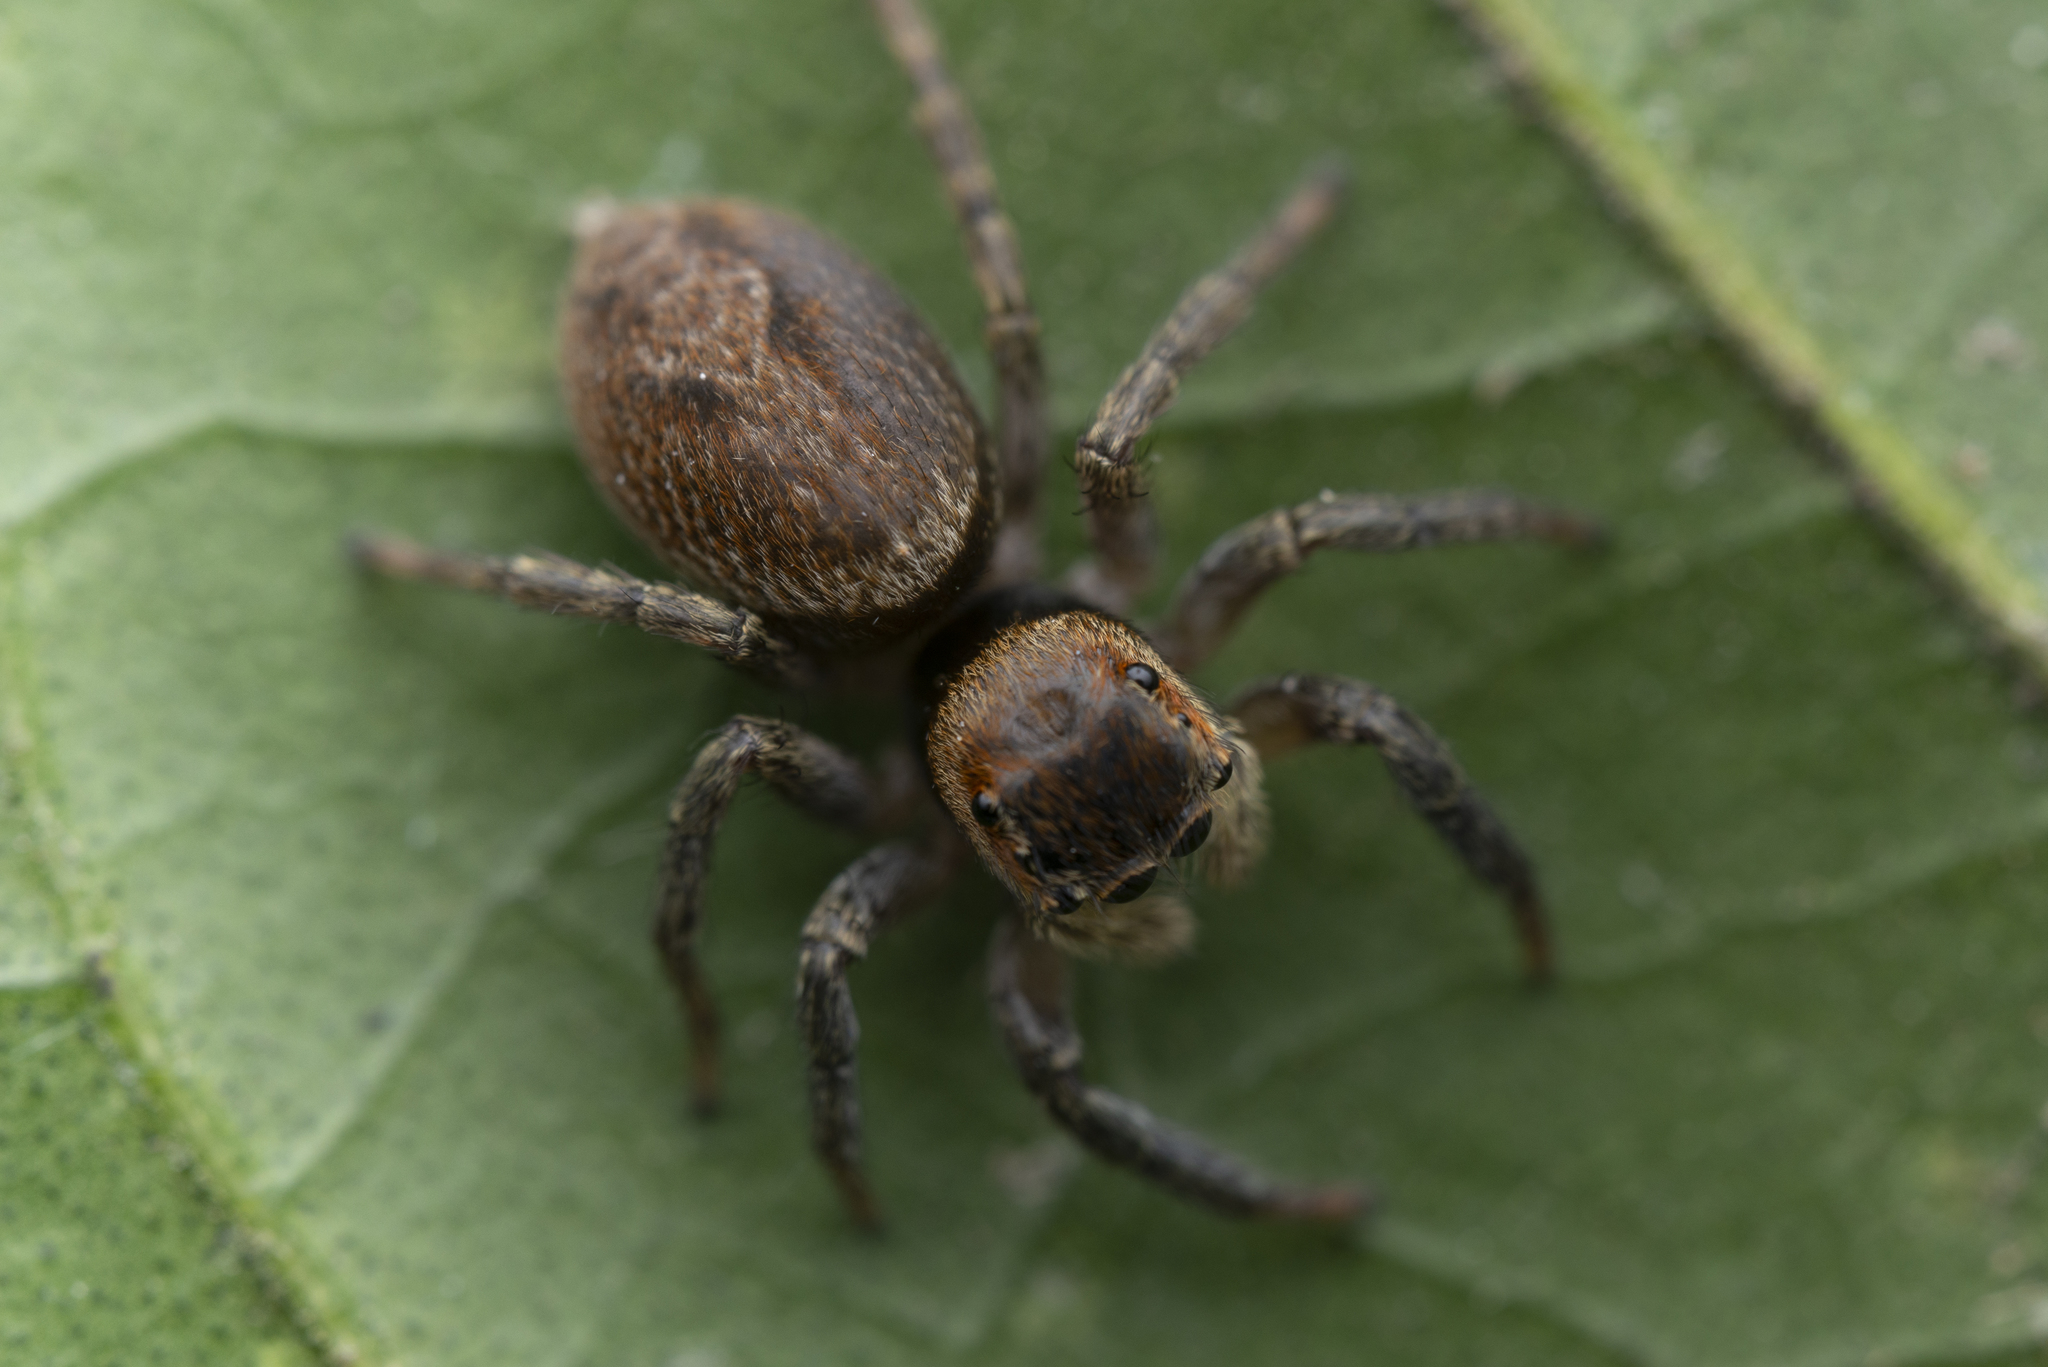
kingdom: Animalia
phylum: Arthropoda
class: Arachnida
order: Araneae
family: Salticidae
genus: Hasarius
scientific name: Hasarius adansoni
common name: Jumping spider
